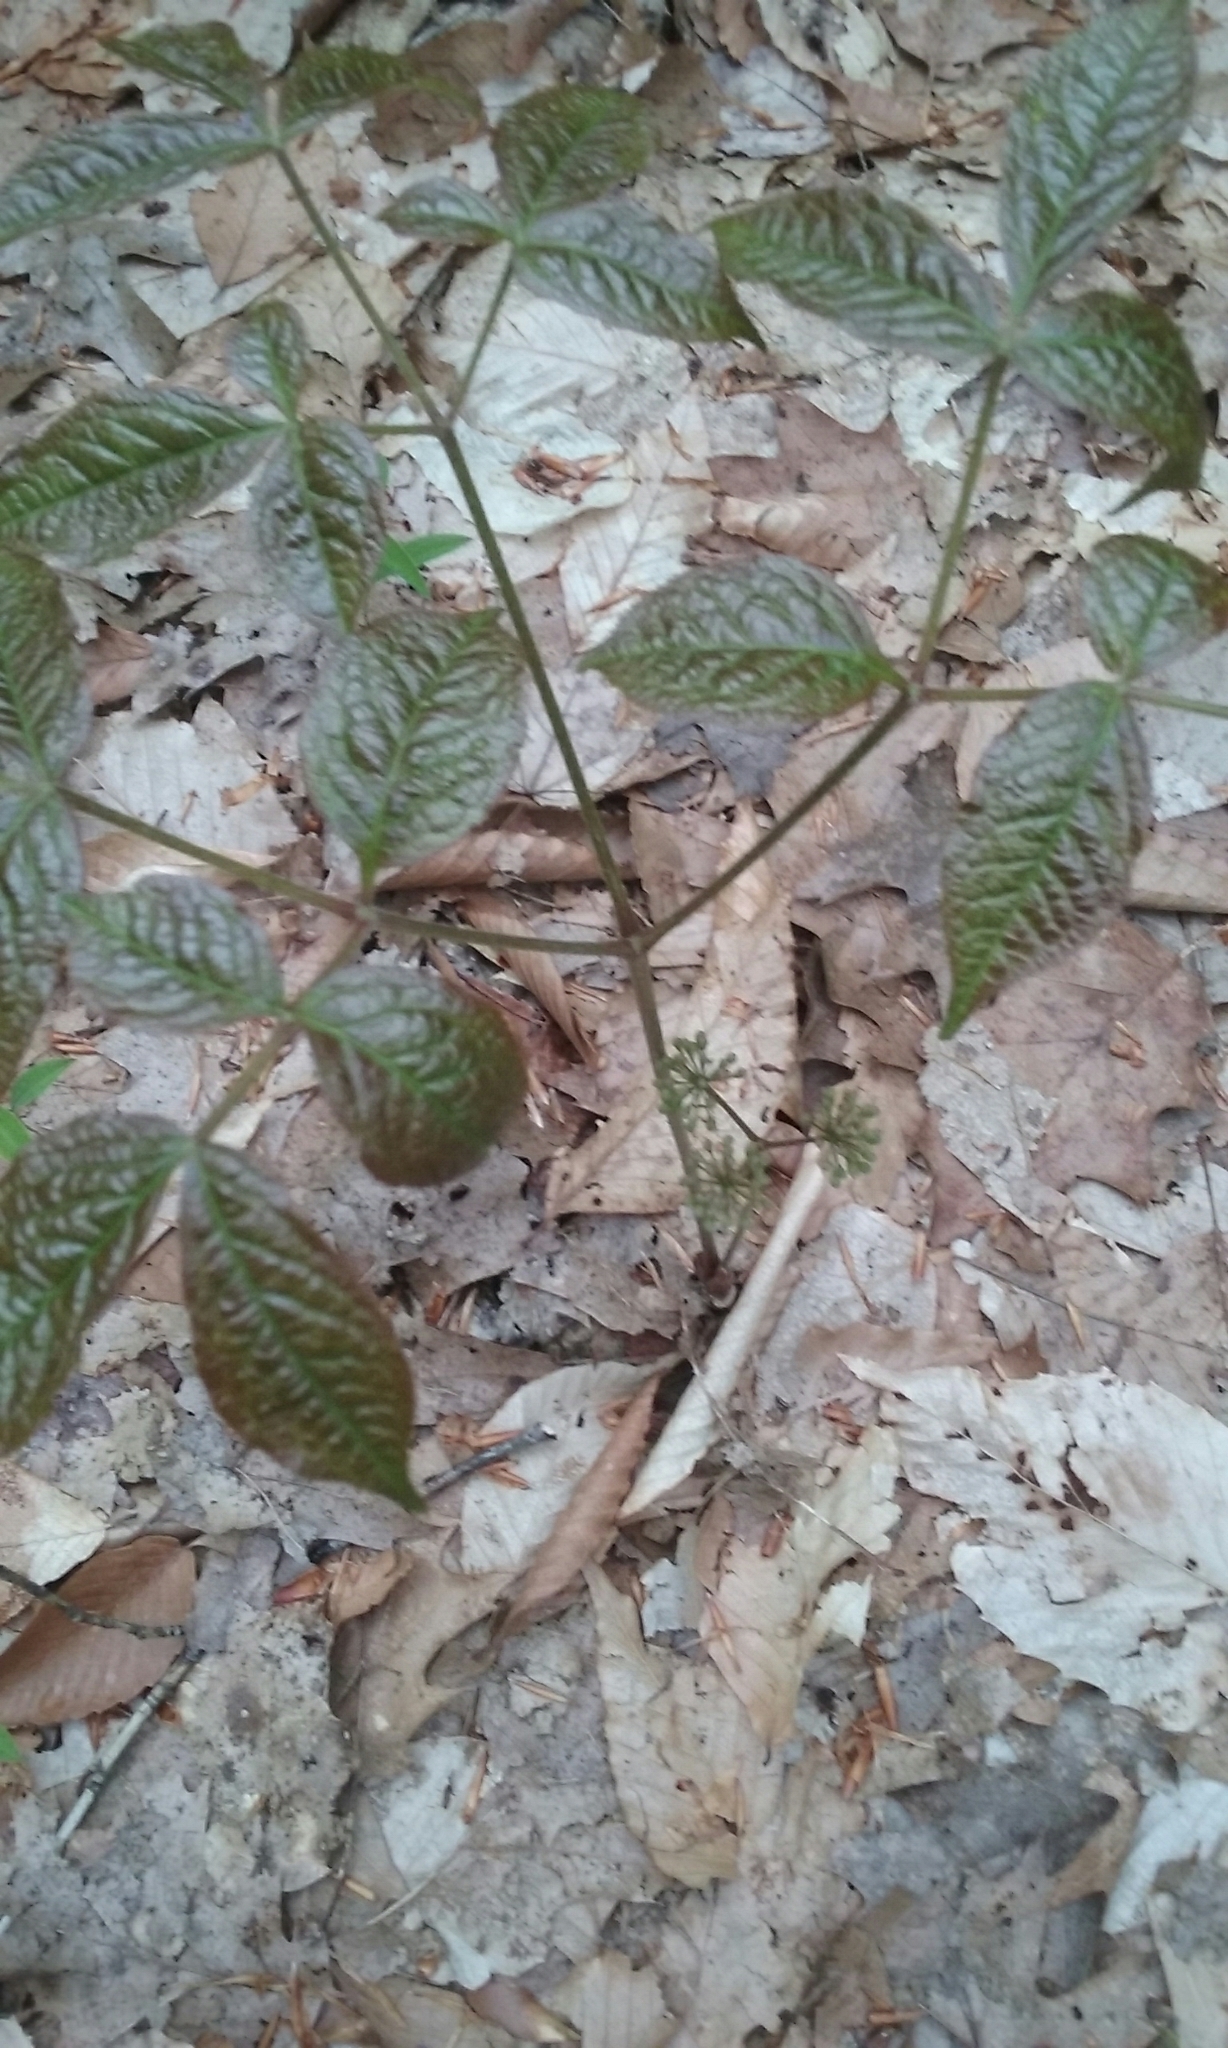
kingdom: Plantae
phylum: Tracheophyta
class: Magnoliopsida
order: Apiales
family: Araliaceae
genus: Aralia
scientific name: Aralia nudicaulis
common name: Wild sarsaparilla
